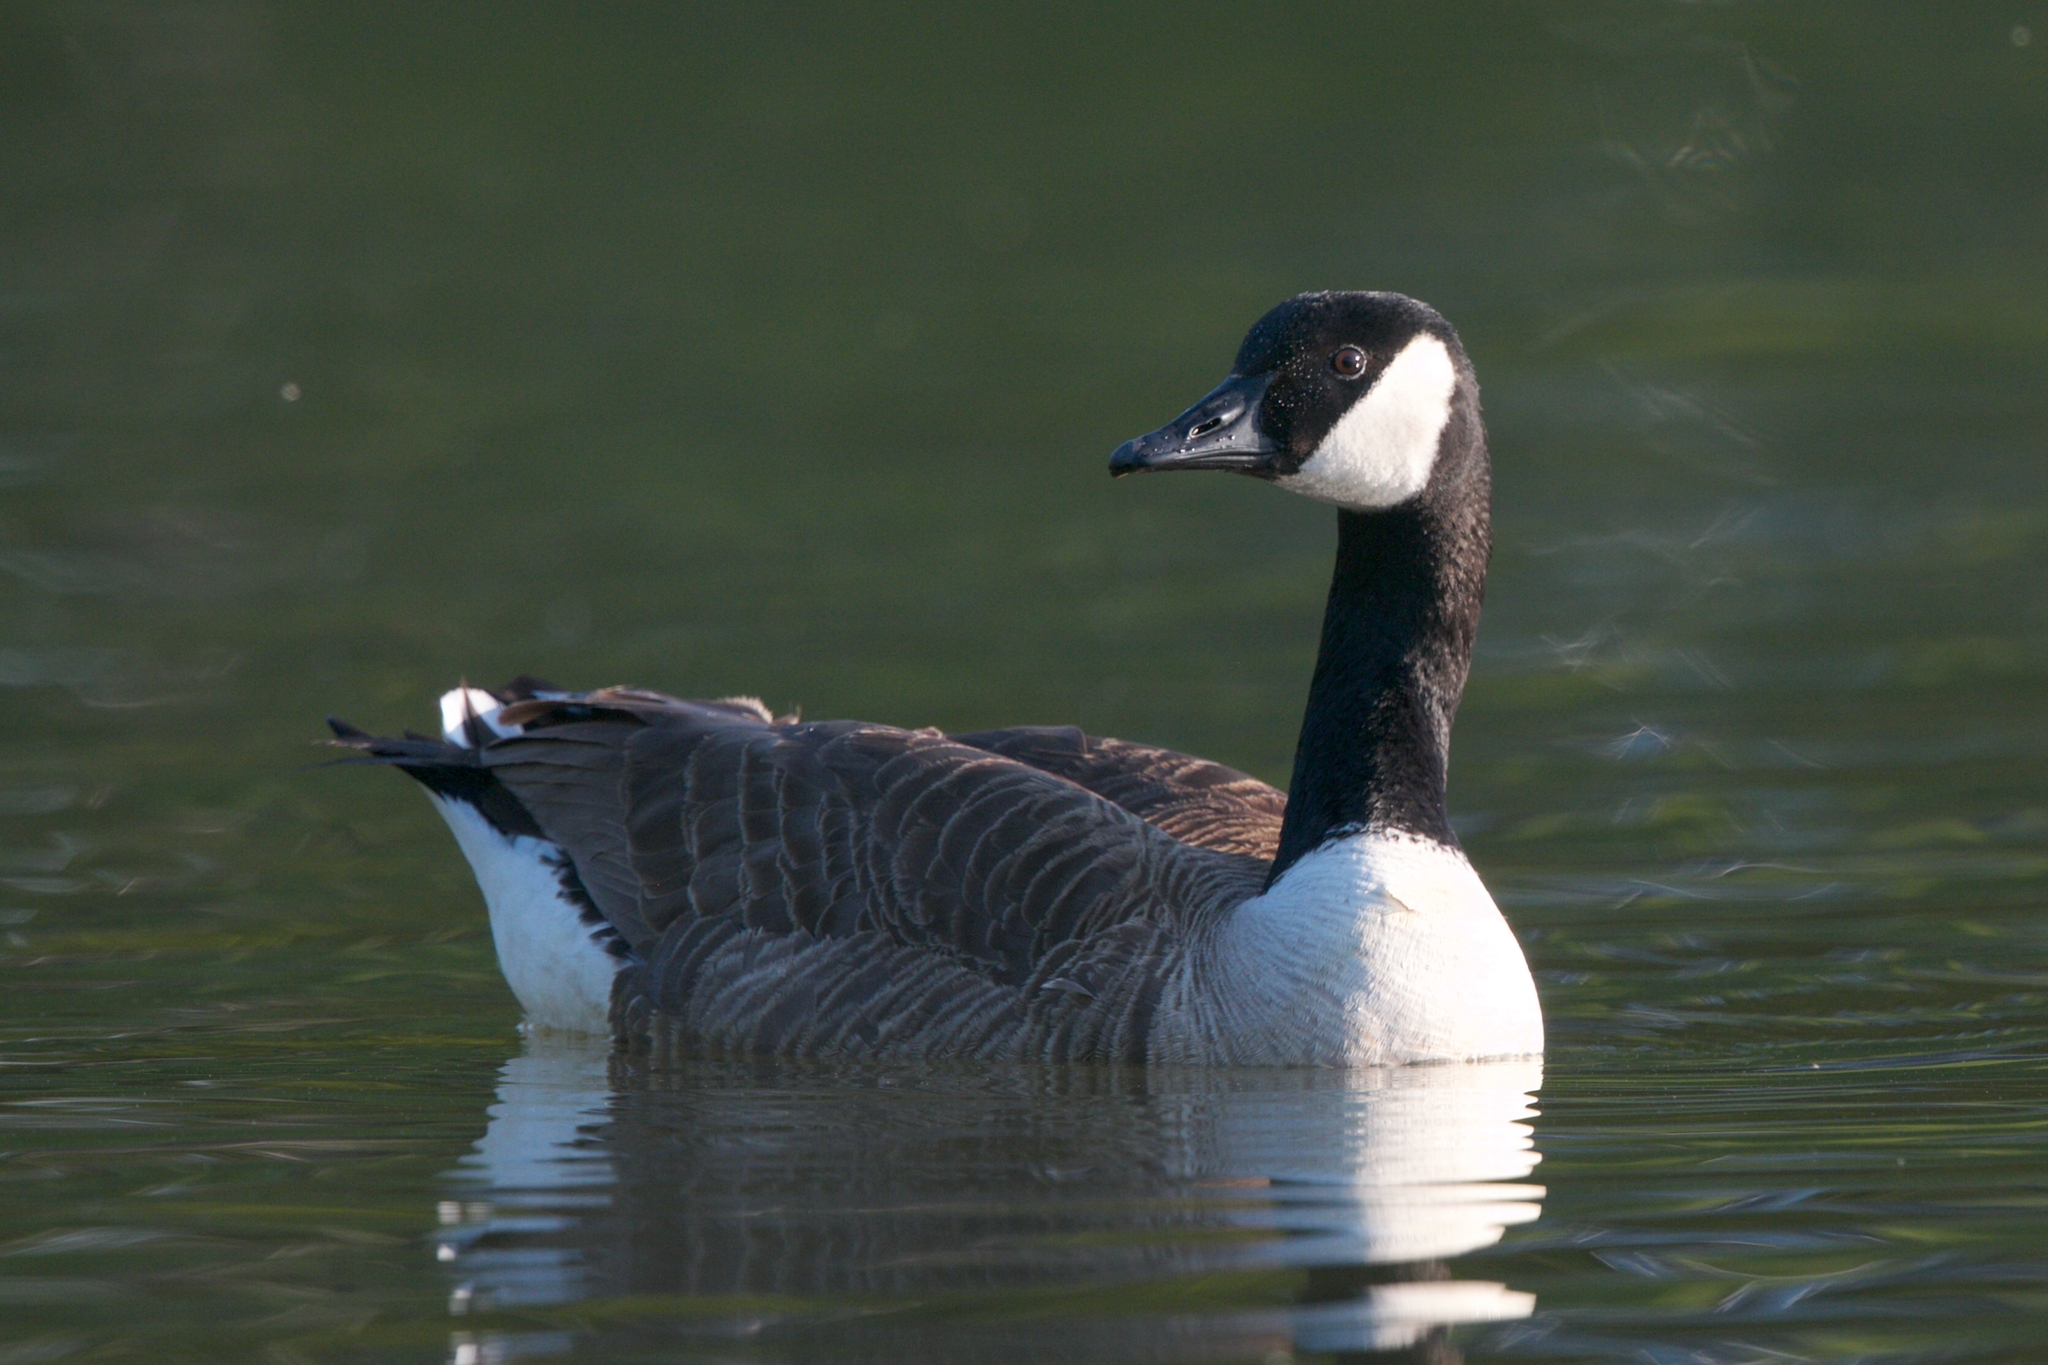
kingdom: Animalia
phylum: Chordata
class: Aves
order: Anseriformes
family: Anatidae
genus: Branta
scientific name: Branta canadensis
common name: Canada goose
